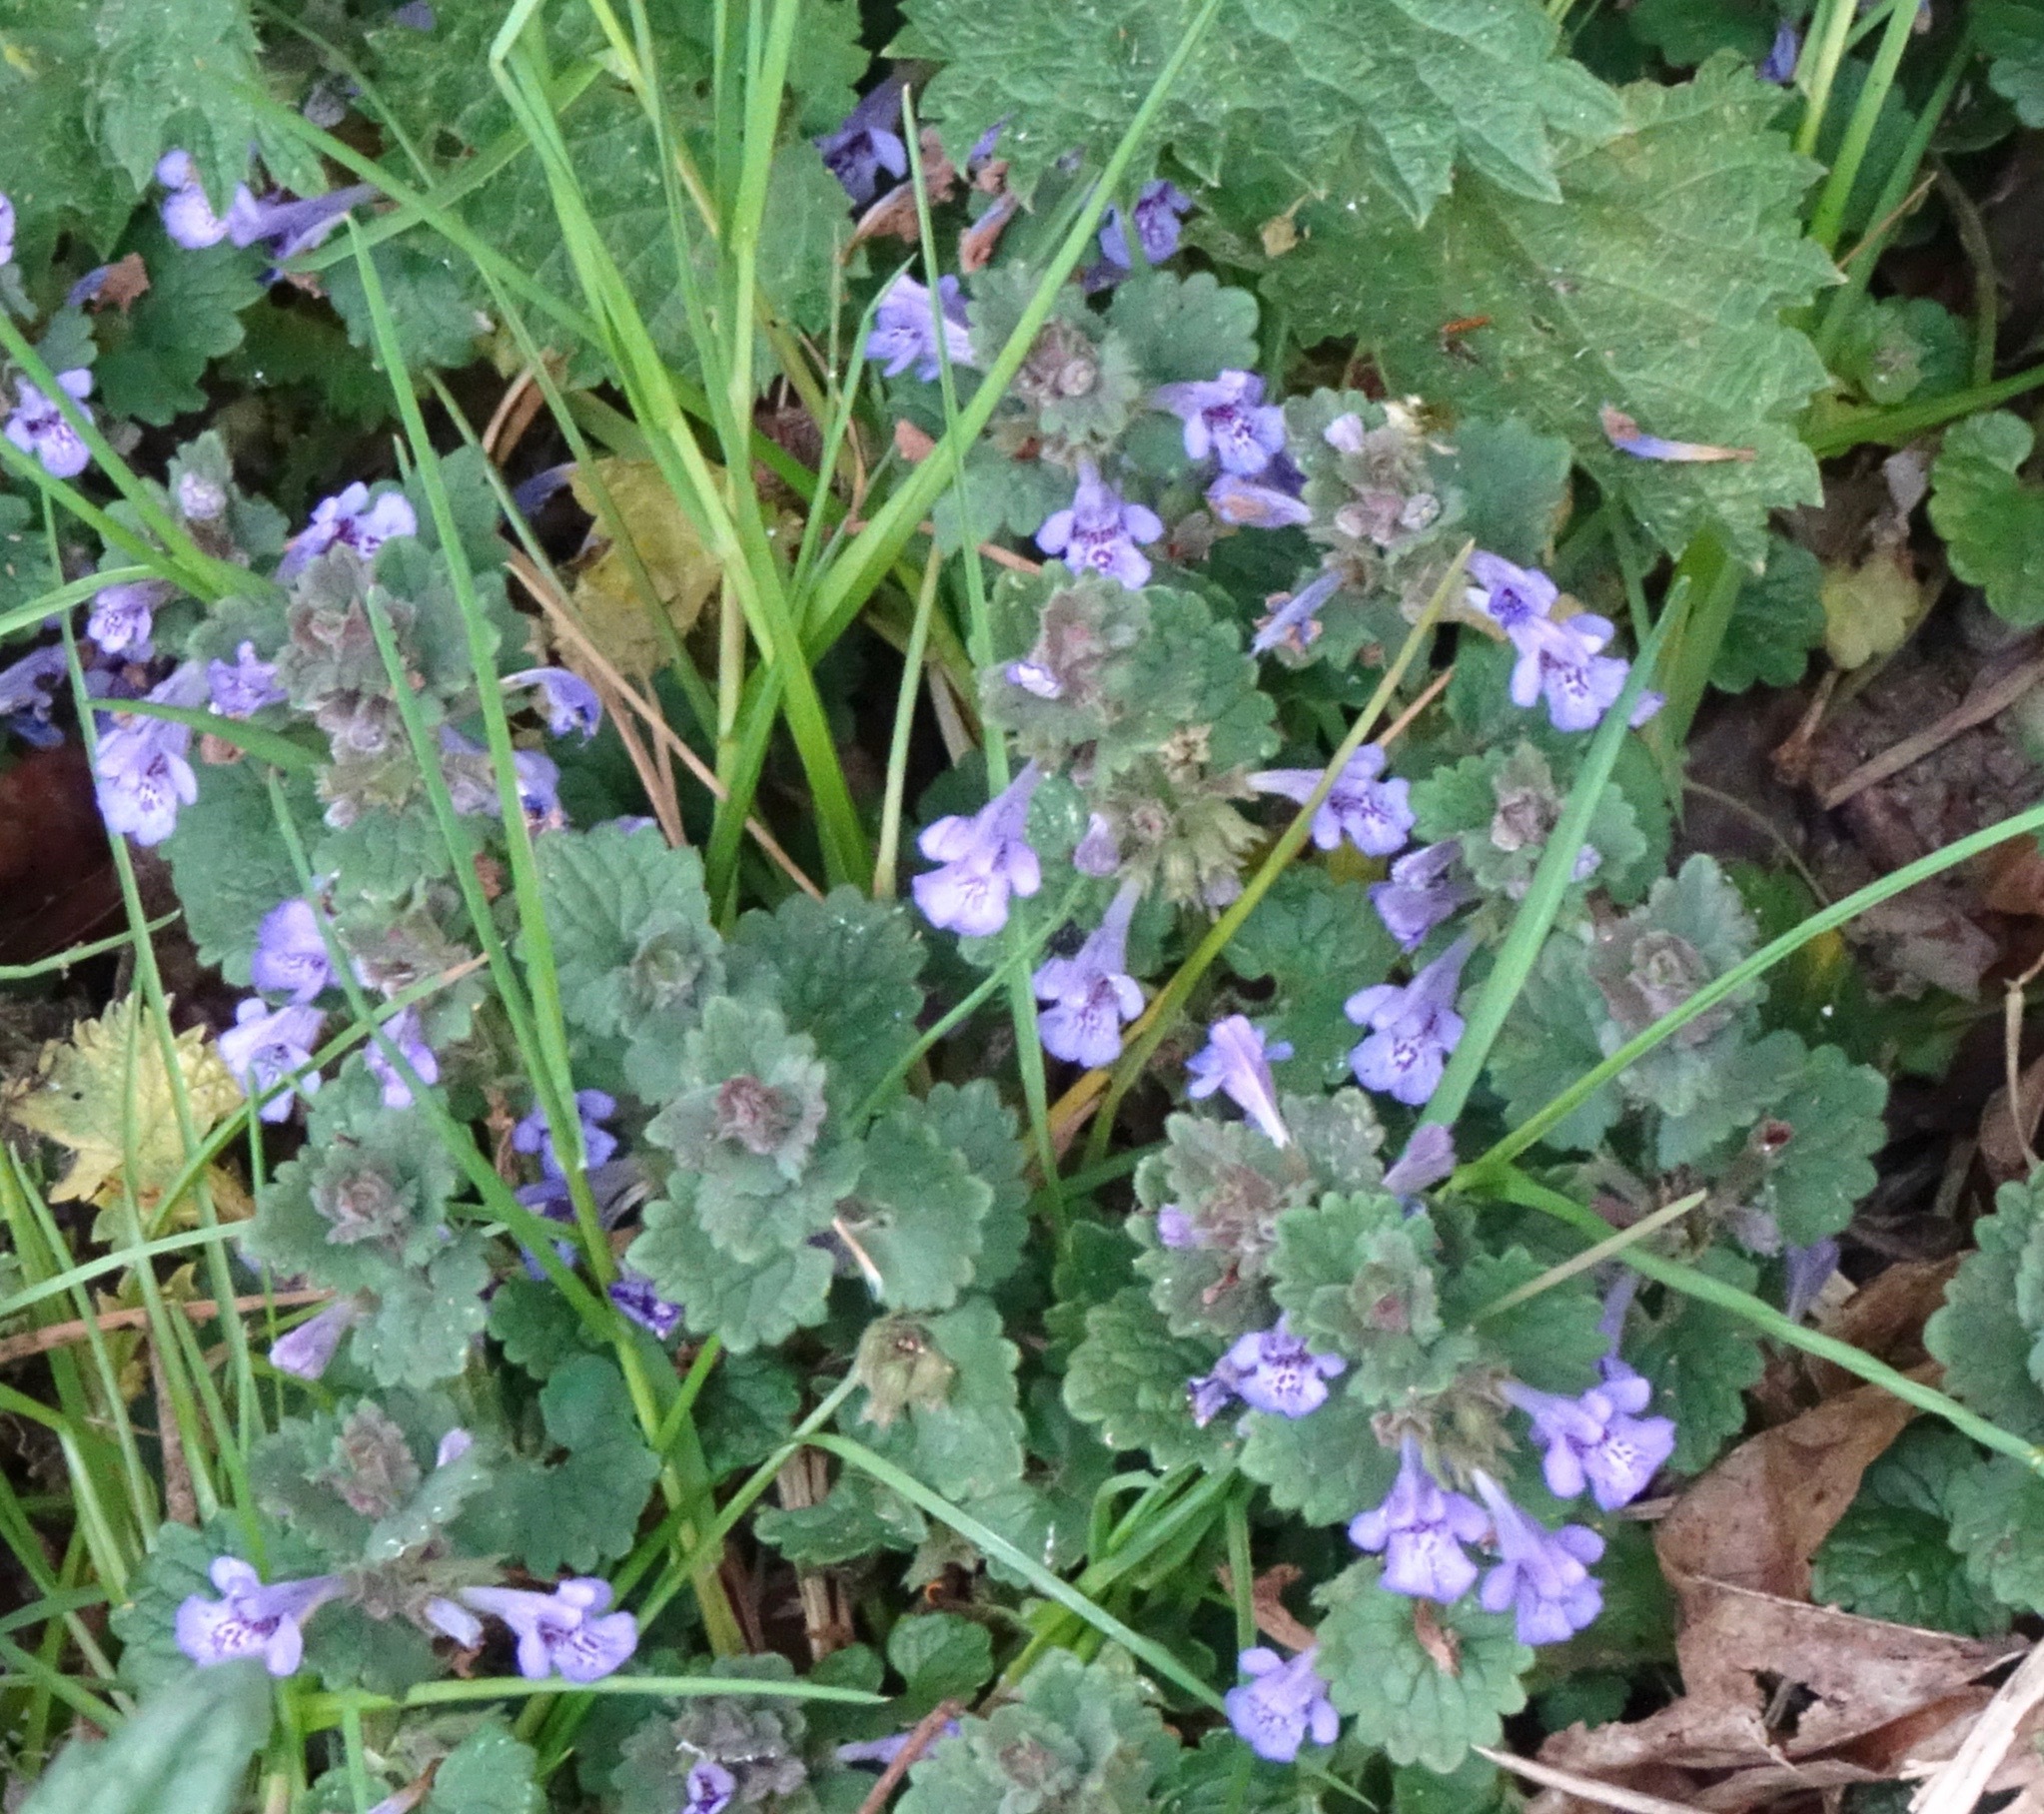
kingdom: Plantae
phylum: Tracheophyta
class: Magnoliopsida
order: Lamiales
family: Lamiaceae
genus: Glechoma
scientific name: Glechoma hederacea
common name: Ground ivy
